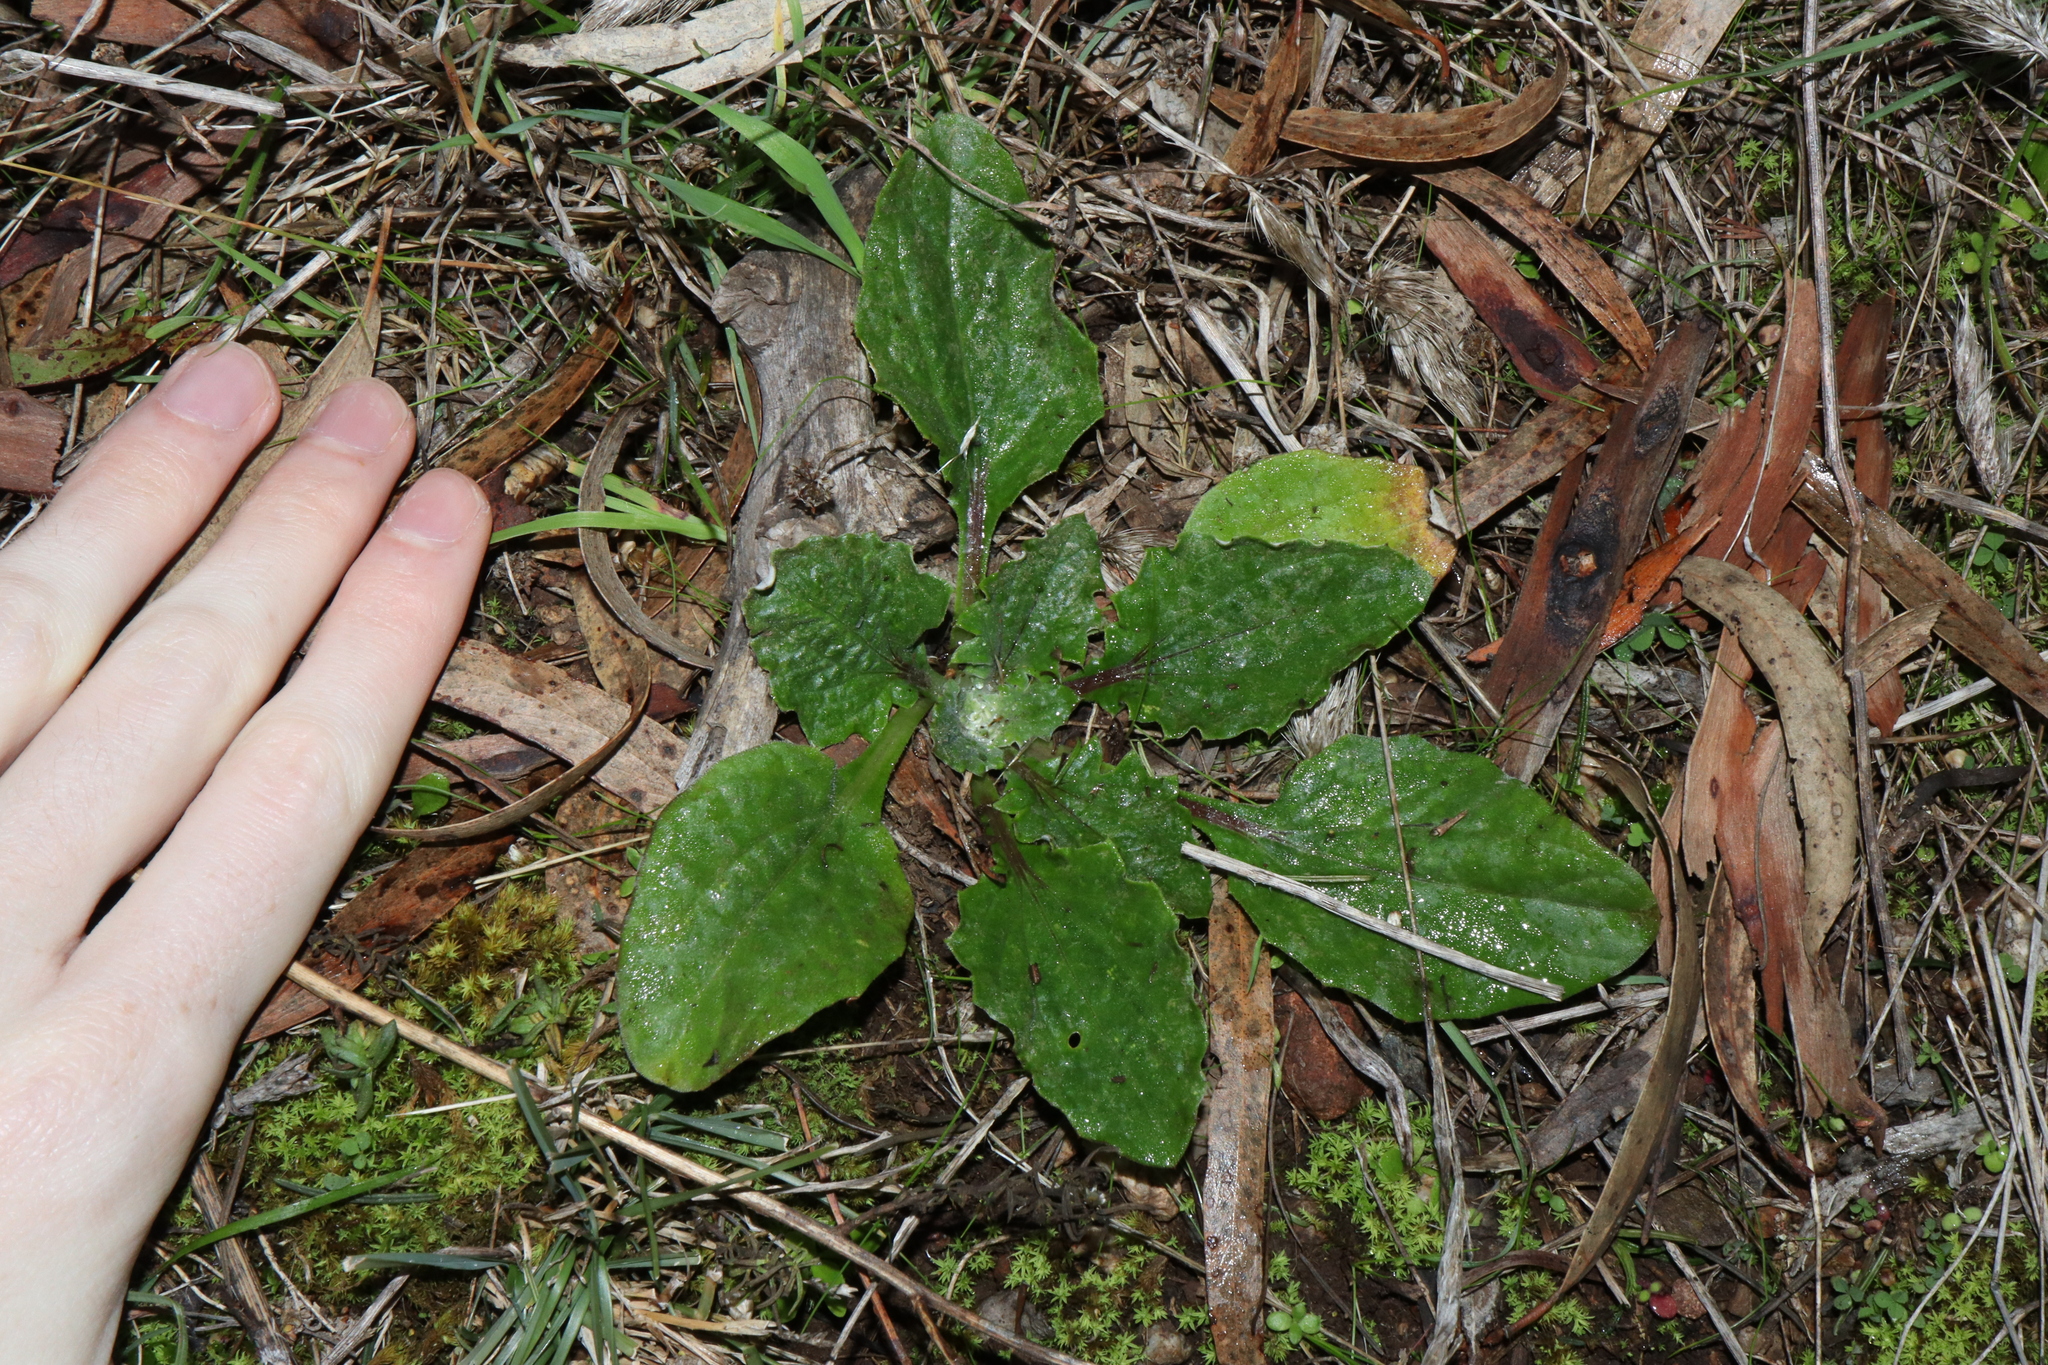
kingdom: Plantae
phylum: Tracheophyta
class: Magnoliopsida
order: Asterales
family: Asteraceae
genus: Cymbonotus
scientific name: Cymbonotus
